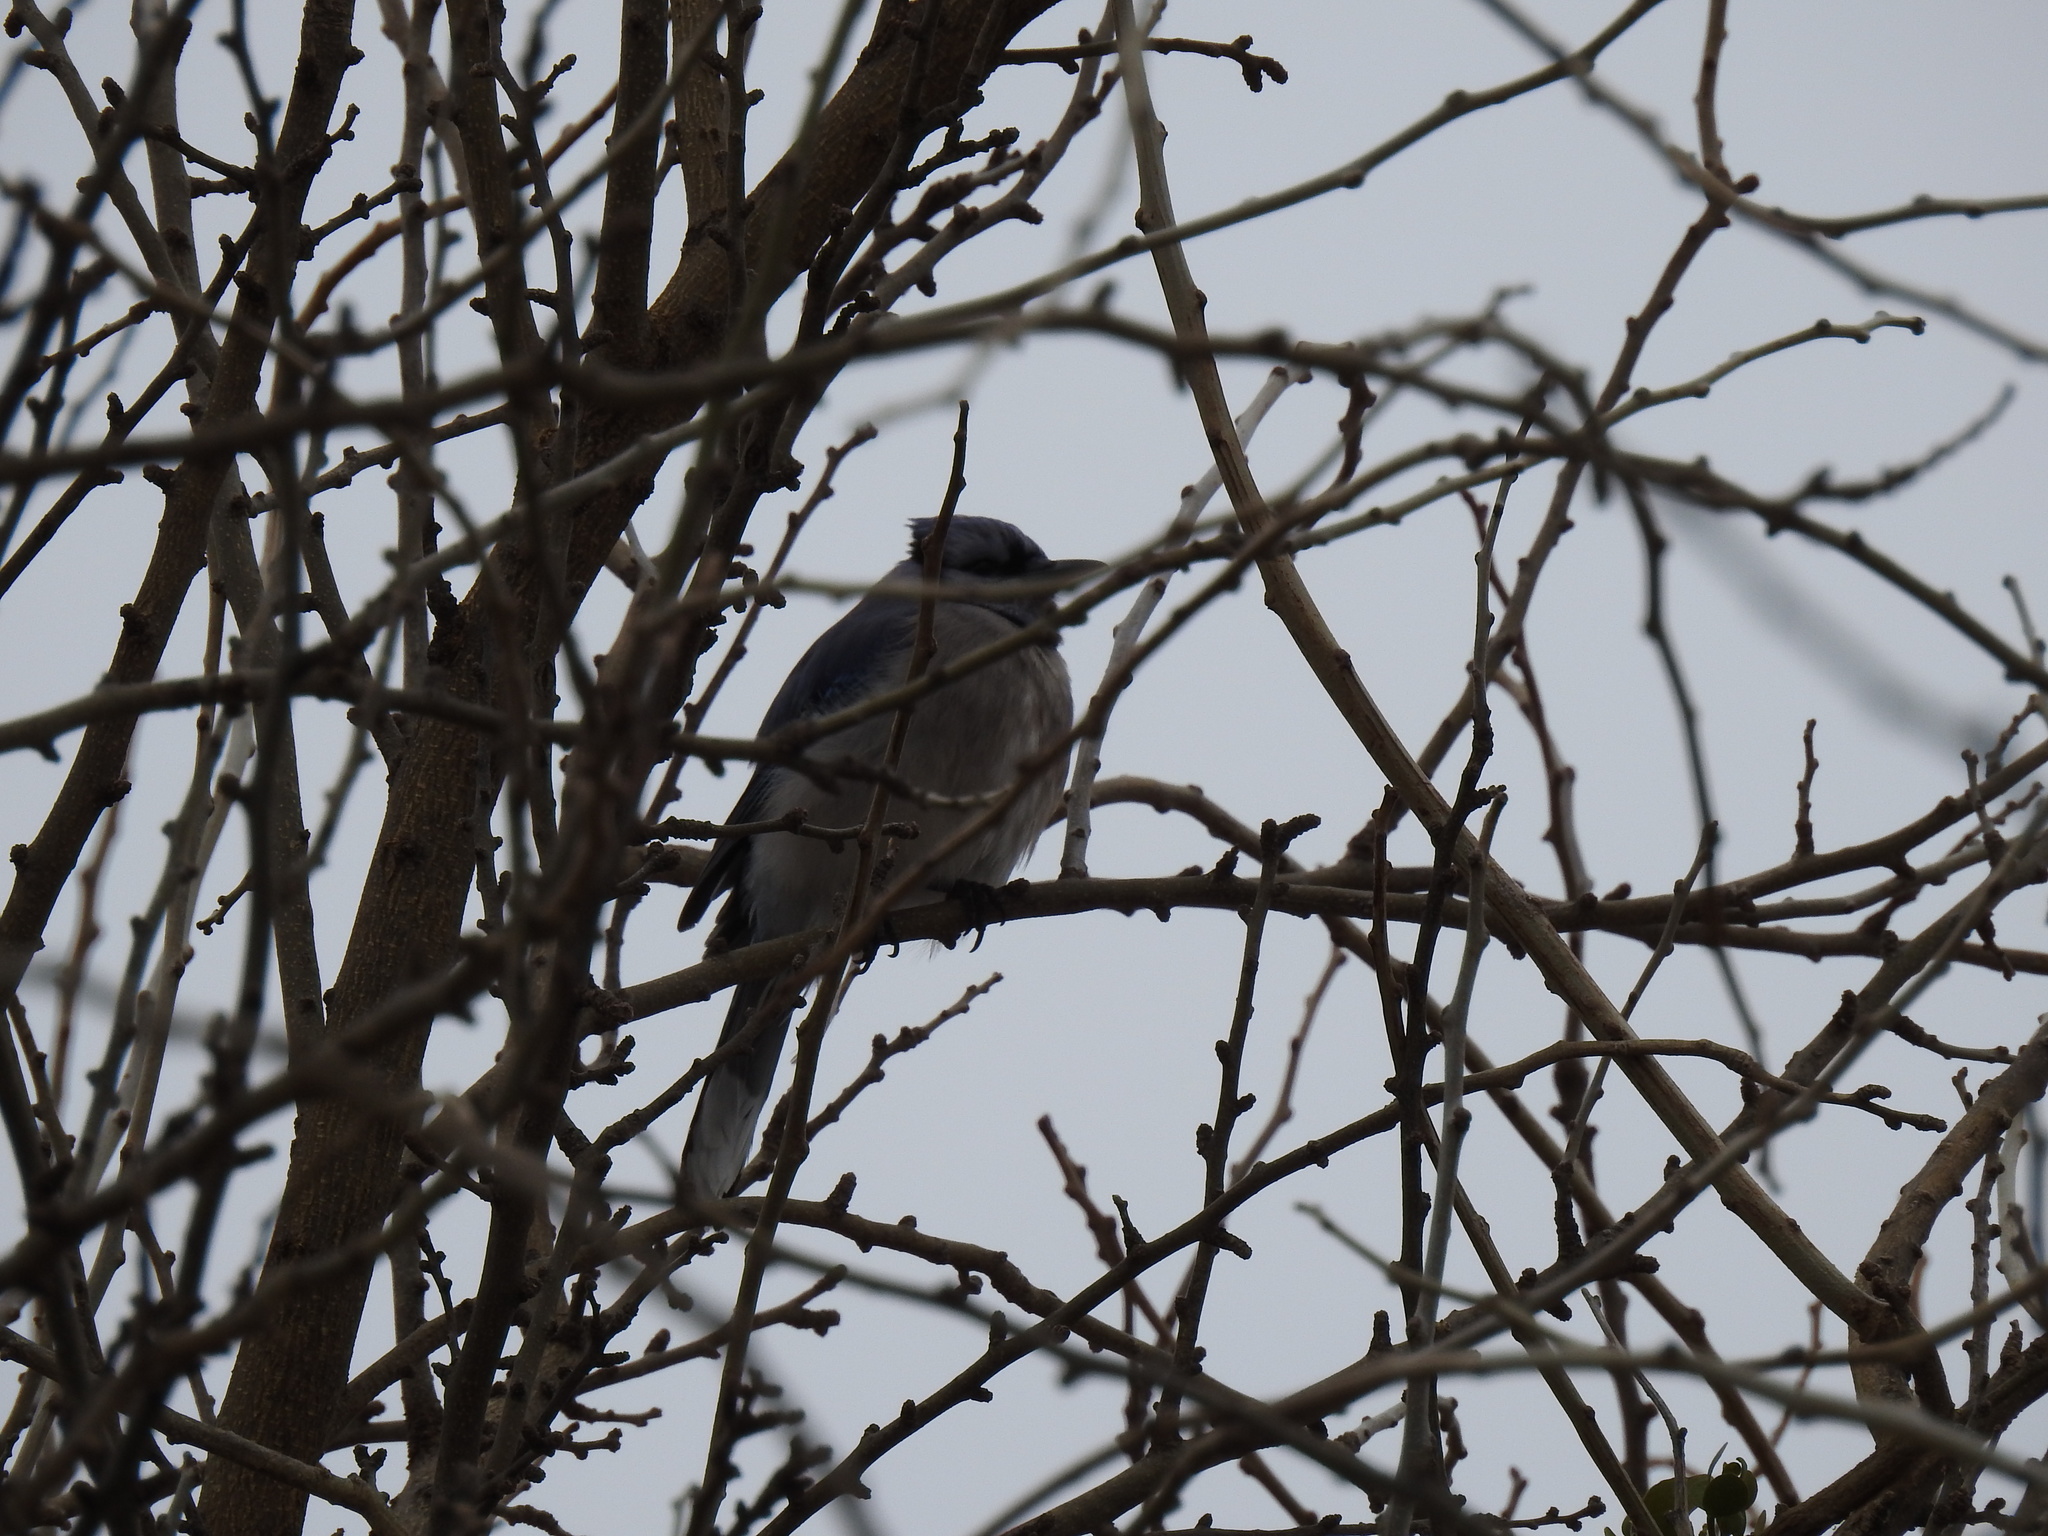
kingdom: Animalia
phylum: Chordata
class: Aves
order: Passeriformes
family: Corvidae
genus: Cyanocitta
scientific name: Cyanocitta cristata
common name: Blue jay
